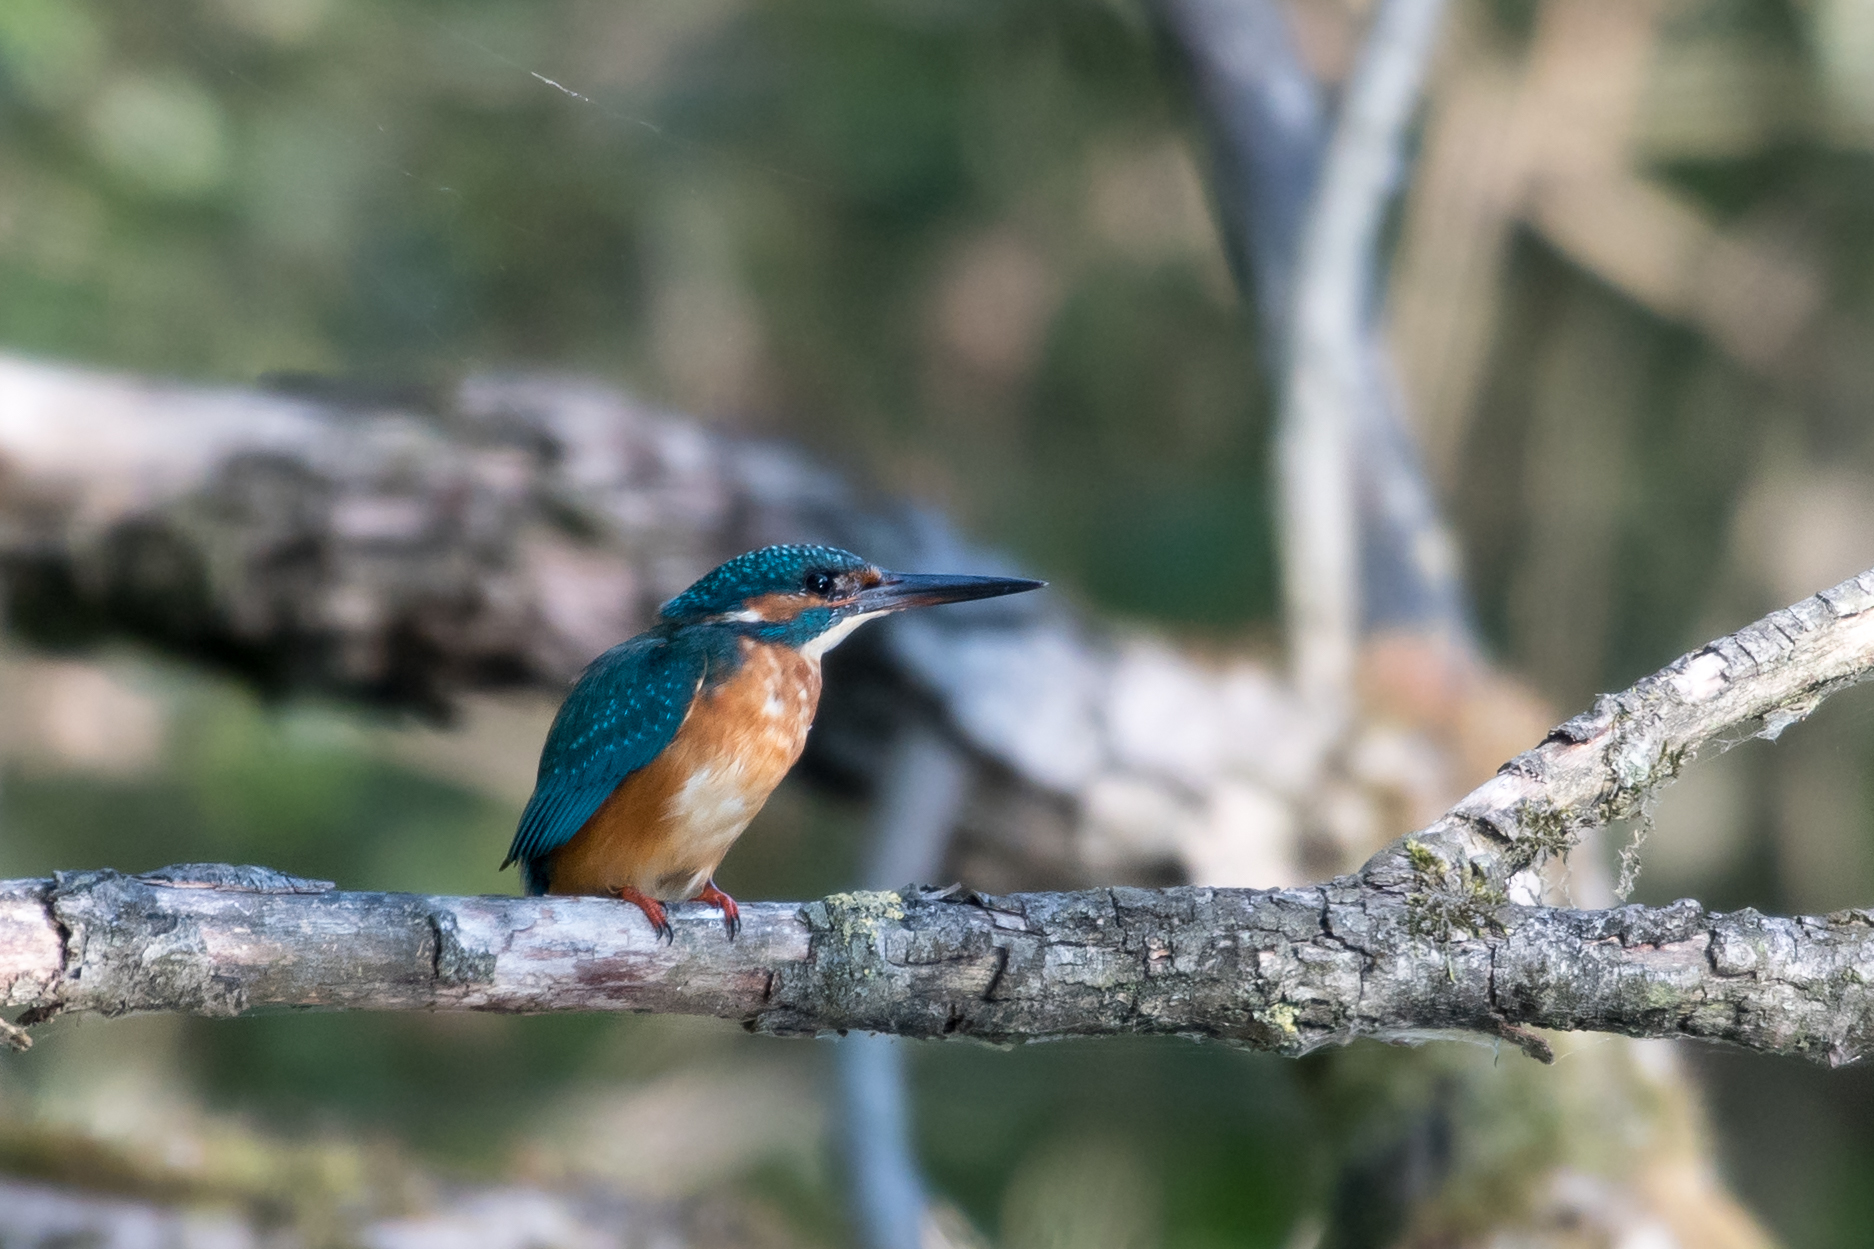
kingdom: Animalia
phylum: Chordata
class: Aves
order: Coraciiformes
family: Alcedinidae
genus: Alcedo
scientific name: Alcedo atthis
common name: Common kingfisher
